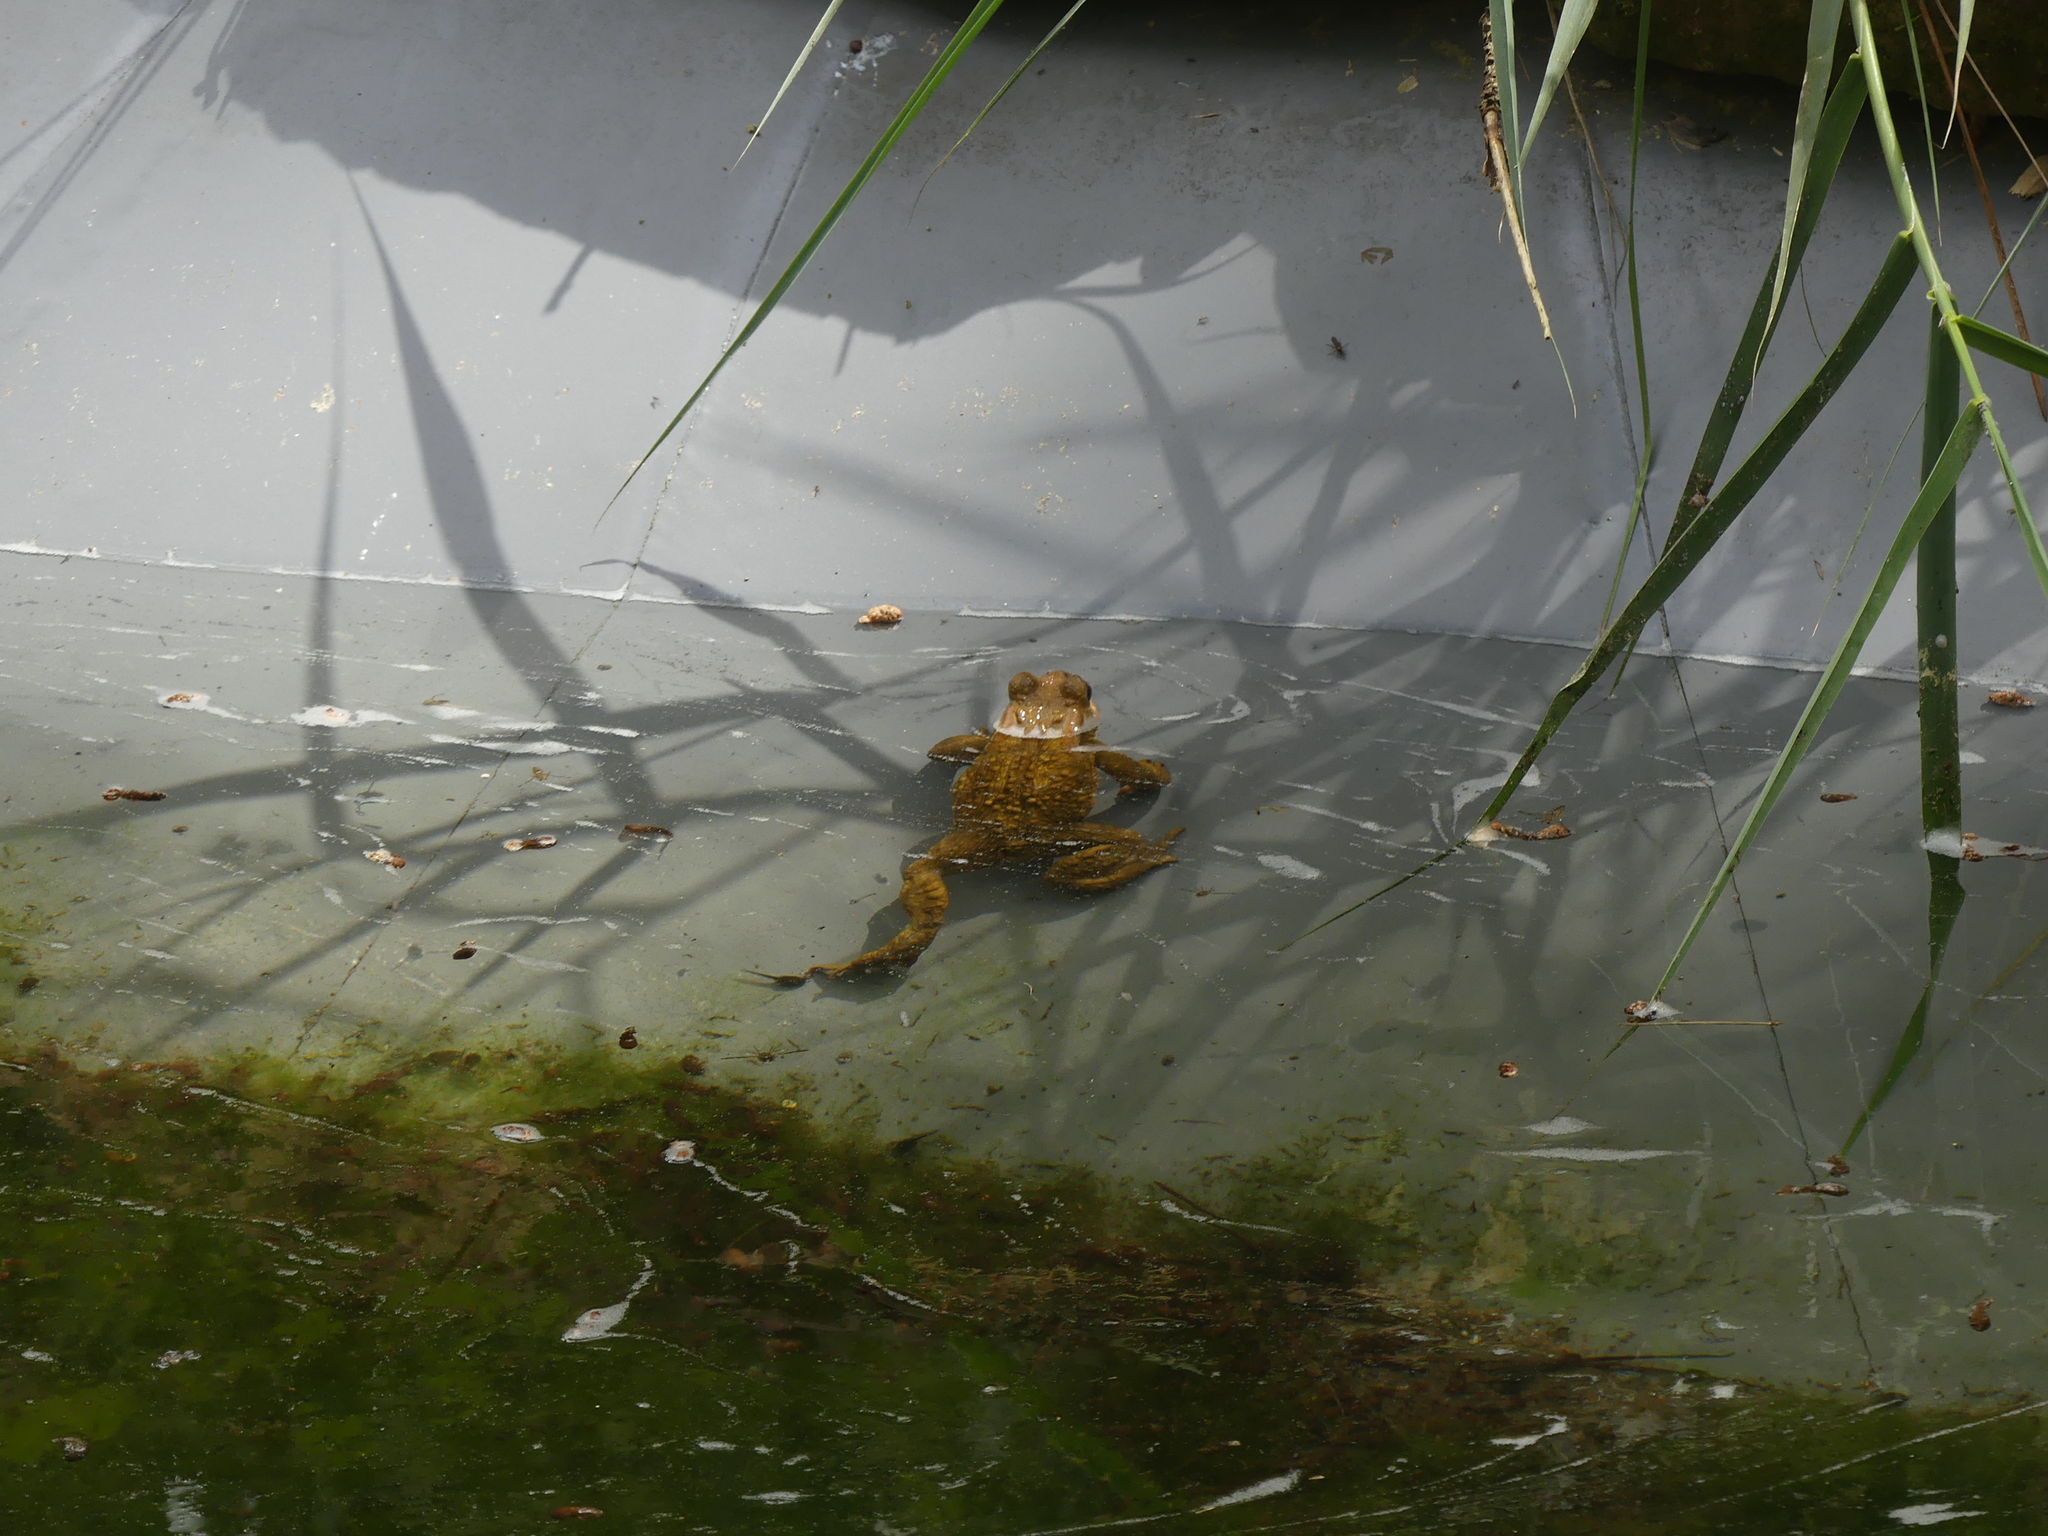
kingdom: Animalia
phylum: Chordata
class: Amphibia
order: Anura
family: Bufonidae
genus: Bufo
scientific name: Bufo spinosus
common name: Western common toad
